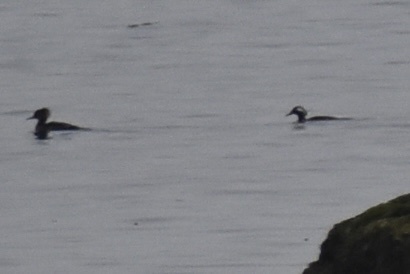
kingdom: Animalia
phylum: Chordata
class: Aves
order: Anseriformes
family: Anatidae
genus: Lophodytes
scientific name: Lophodytes cucullatus
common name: Hooded merganser
